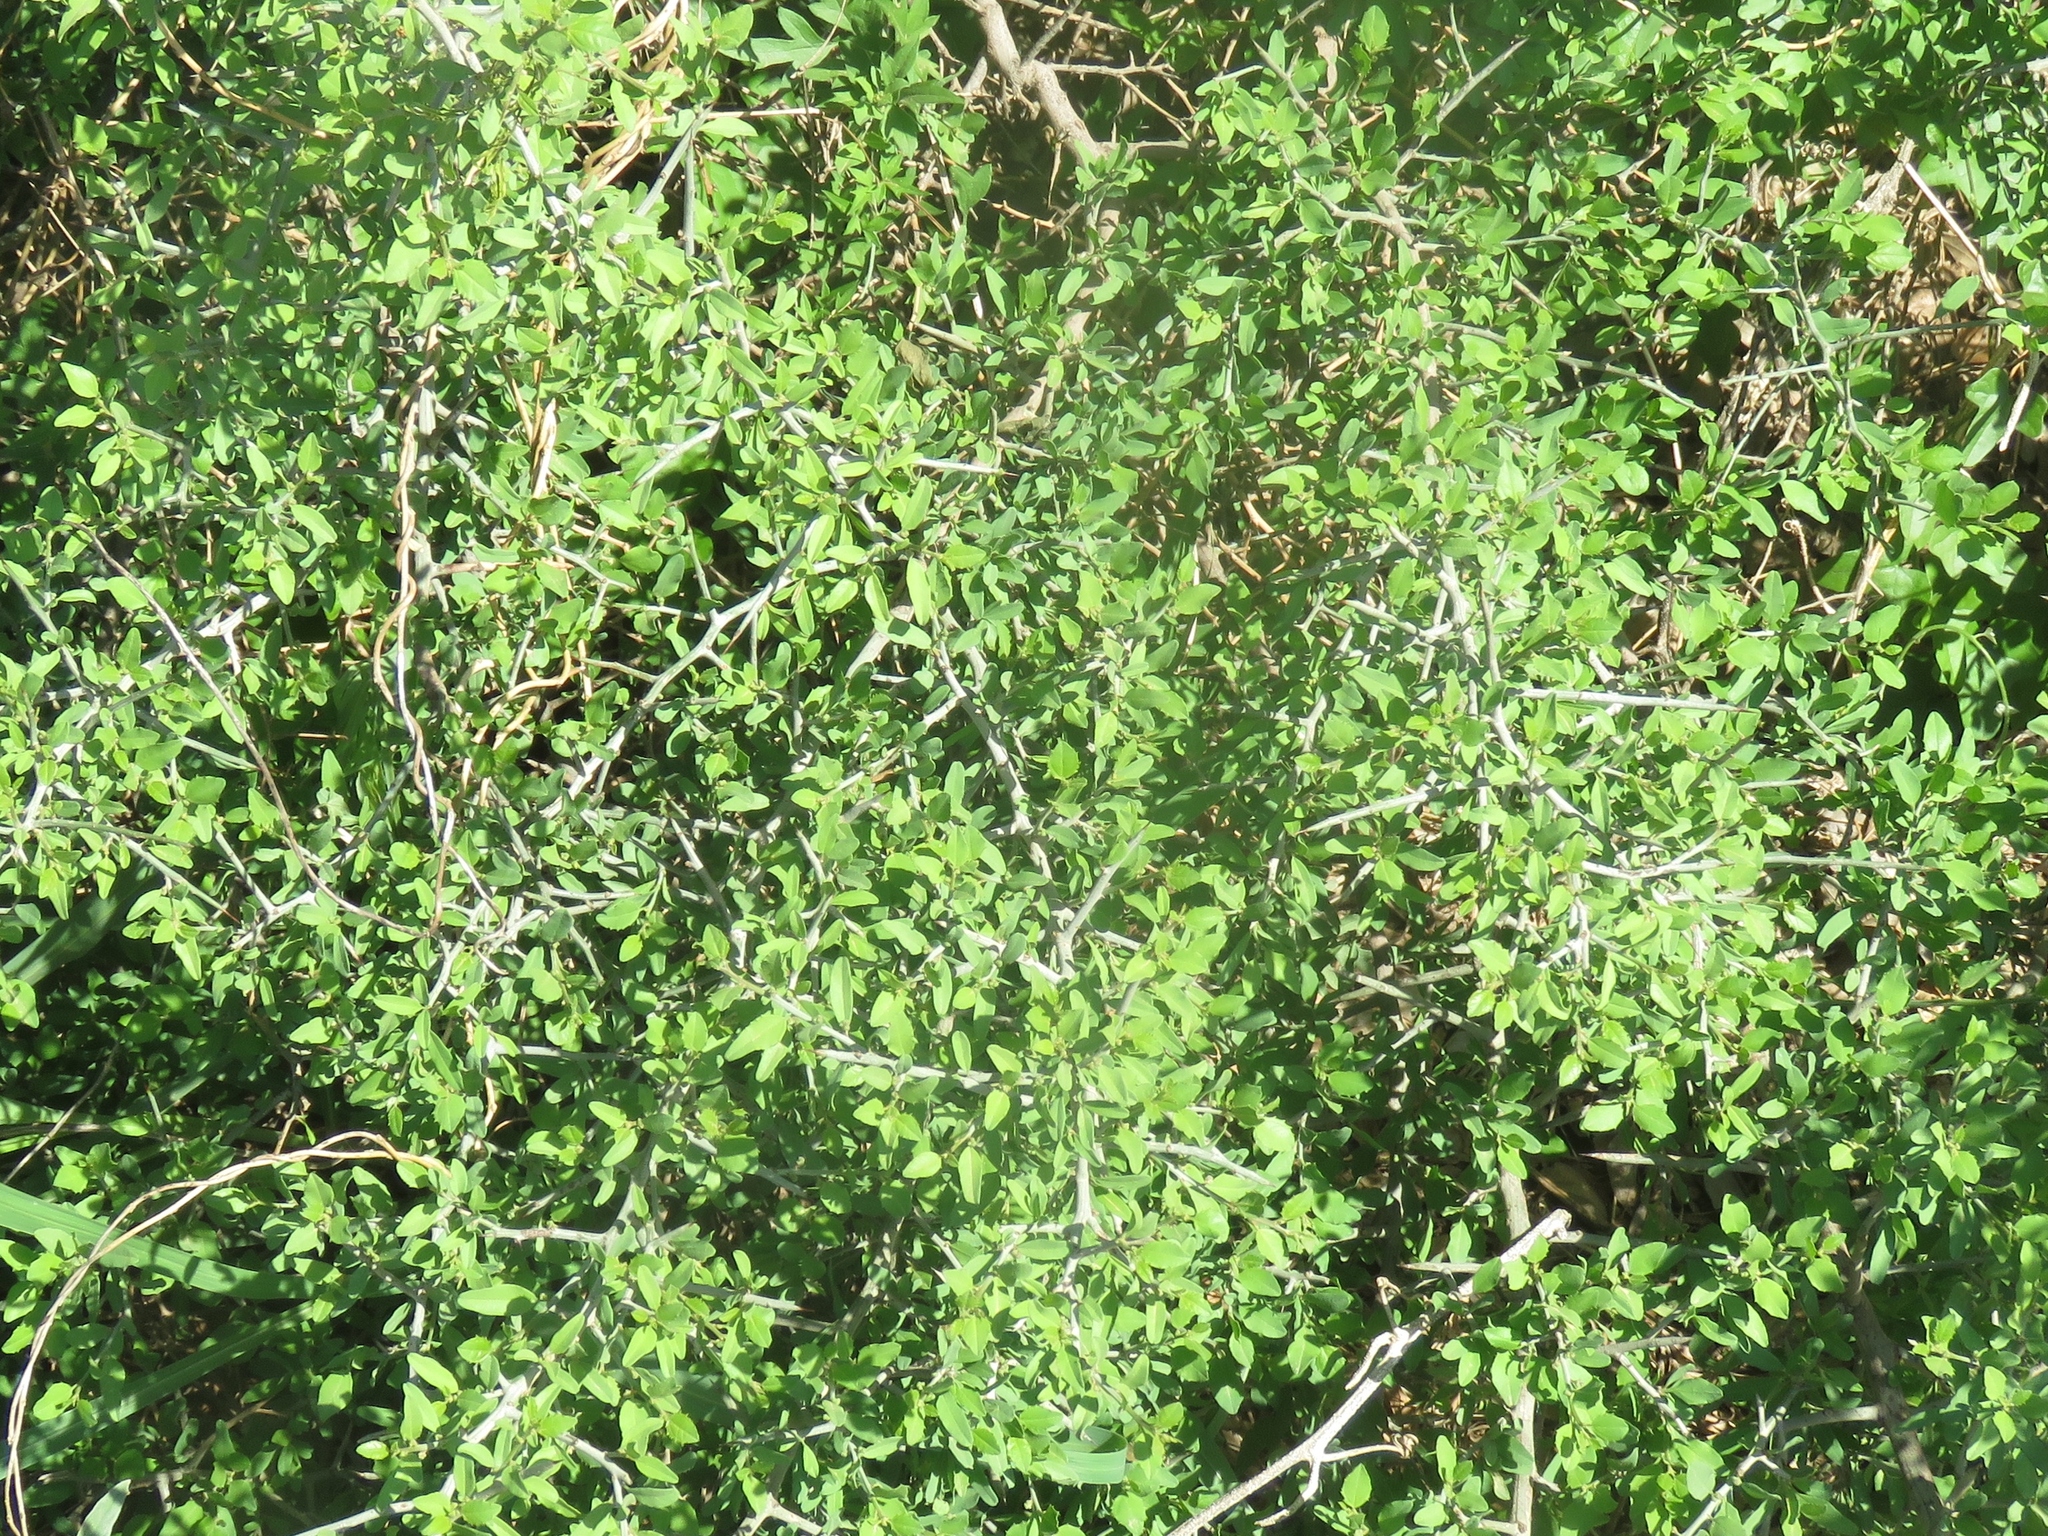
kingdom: Plantae
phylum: Tracheophyta
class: Magnoliopsida
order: Rosales
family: Rhamnaceae
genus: Sarcomphalus
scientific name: Sarcomphalus obtusifolius
